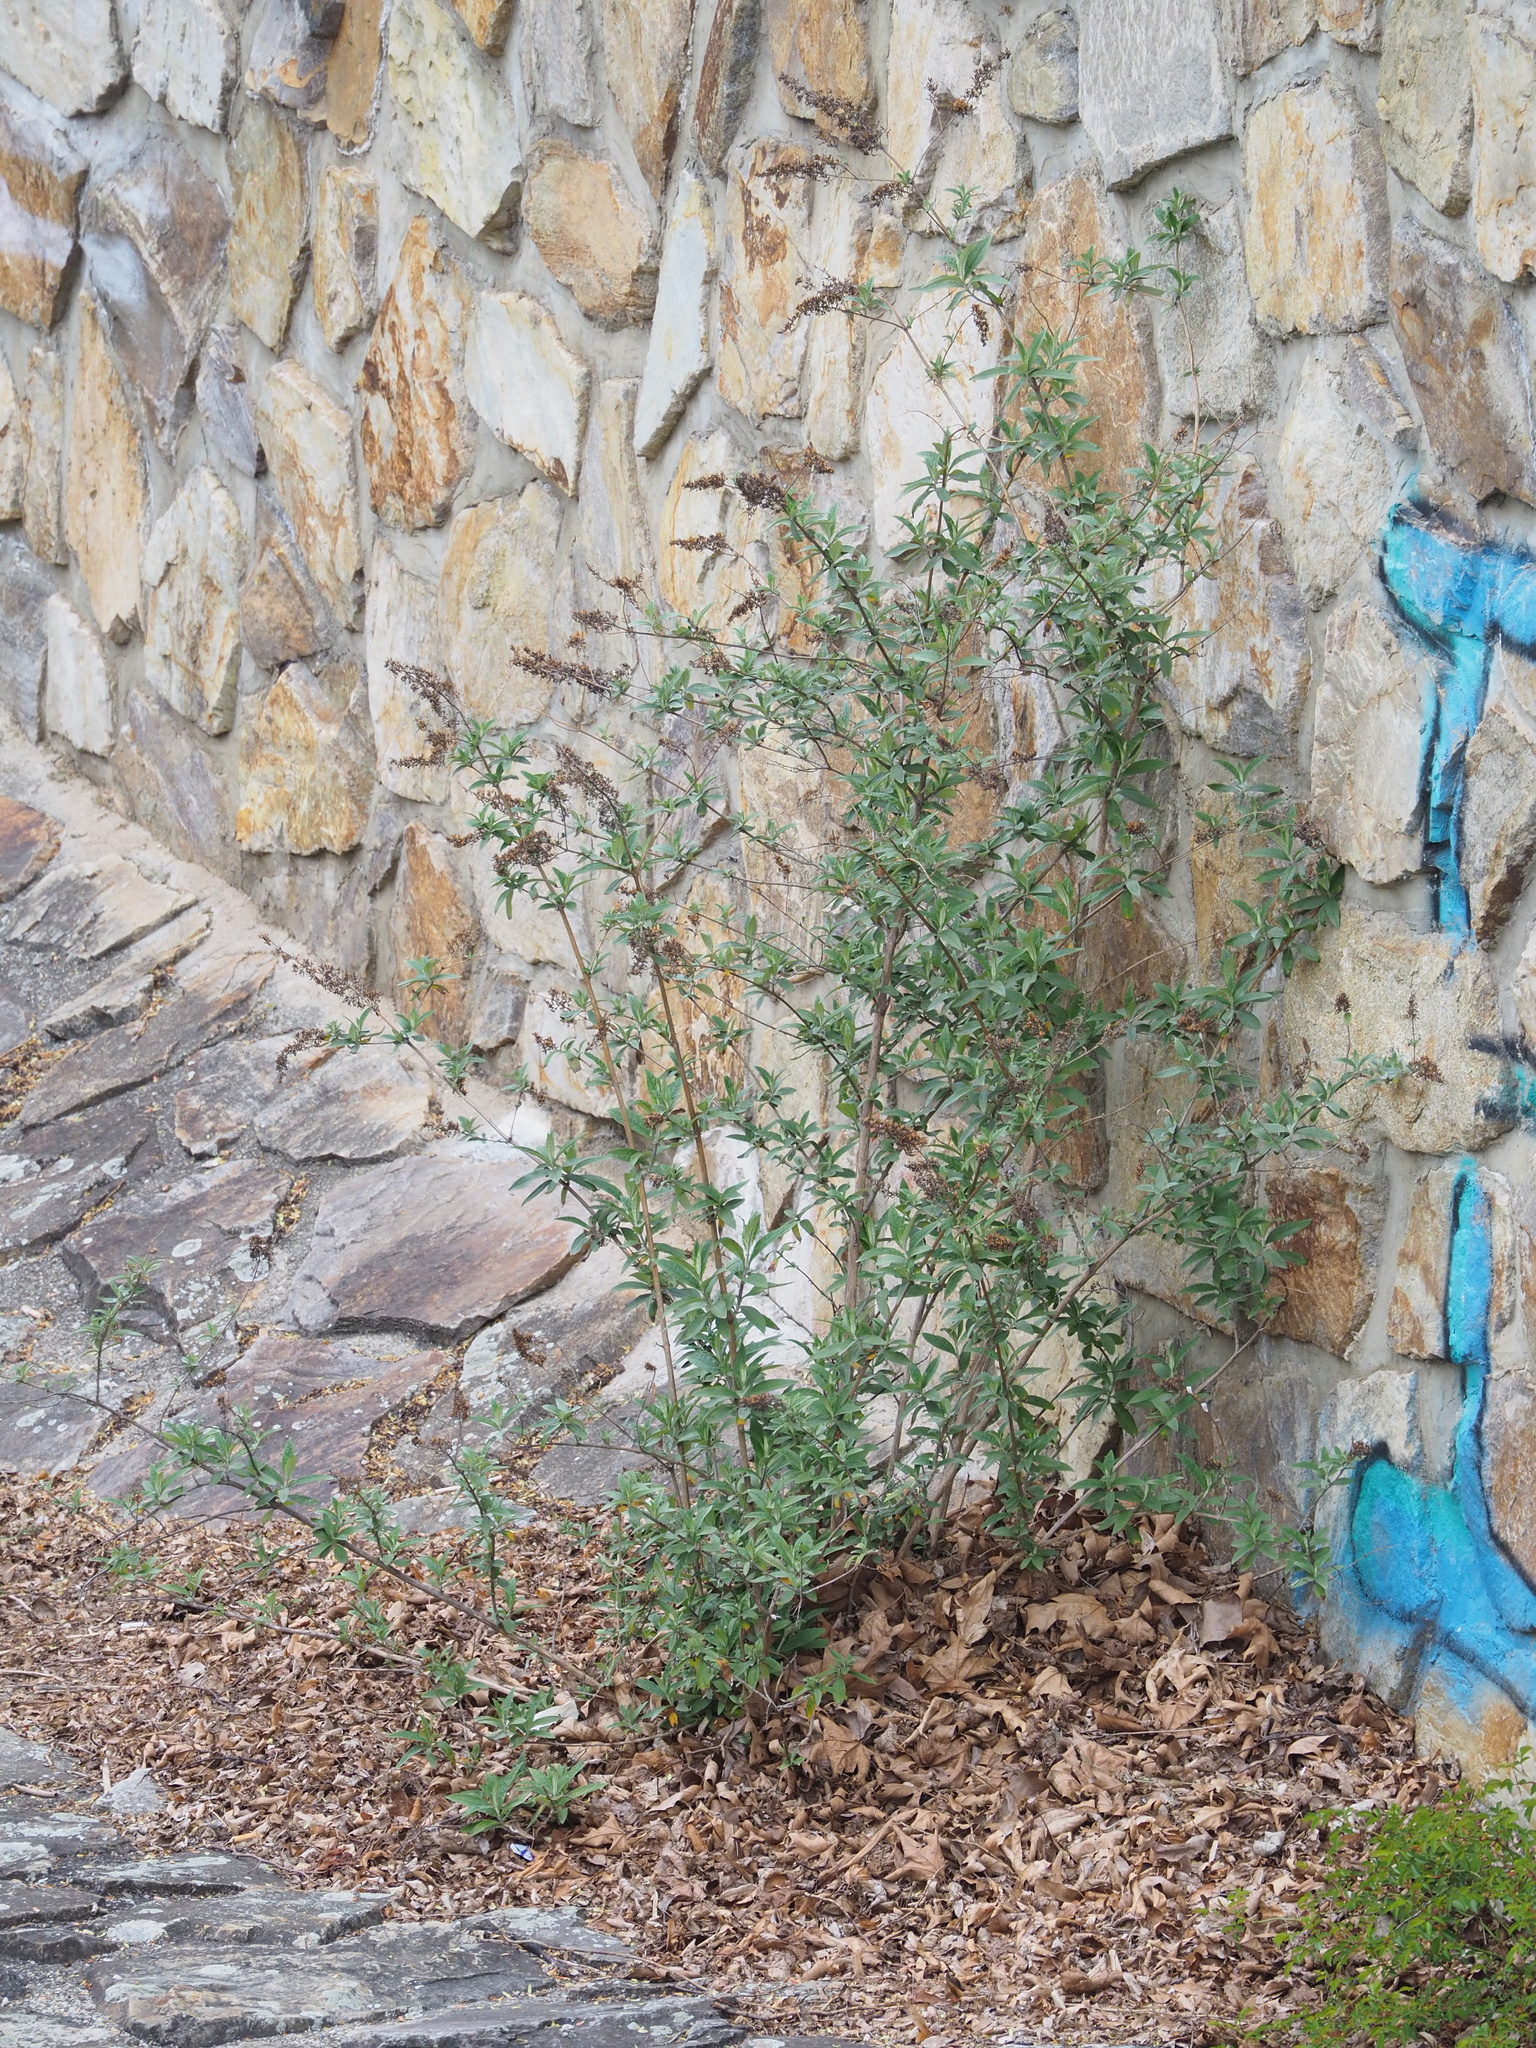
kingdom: Plantae
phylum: Tracheophyta
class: Magnoliopsida
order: Lamiales
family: Scrophulariaceae
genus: Buddleja
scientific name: Buddleja davidii
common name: Butterfly-bush
